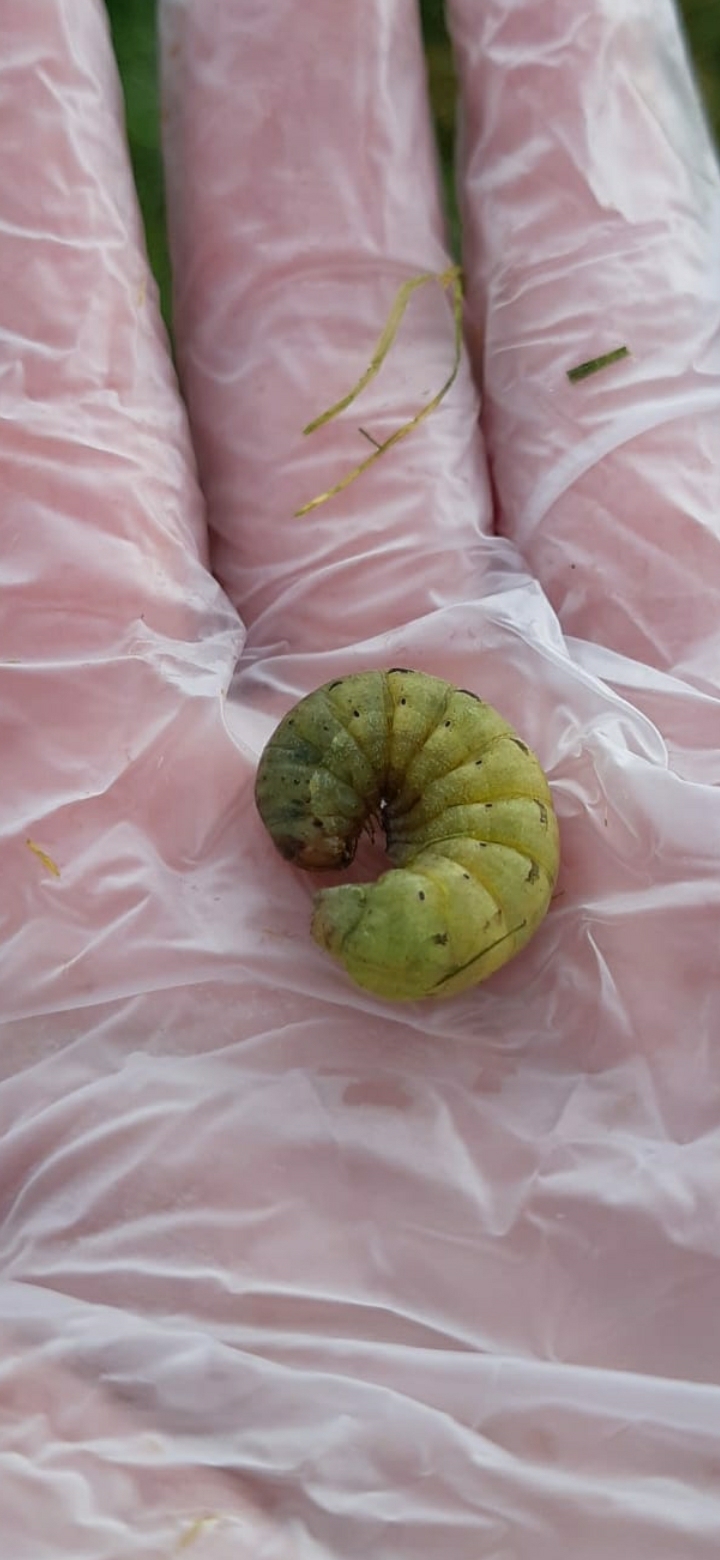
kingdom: Animalia
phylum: Arthropoda
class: Insecta
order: Lepidoptera
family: Noctuidae
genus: Noctua
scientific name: Noctua pronuba
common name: Large yellow underwing
